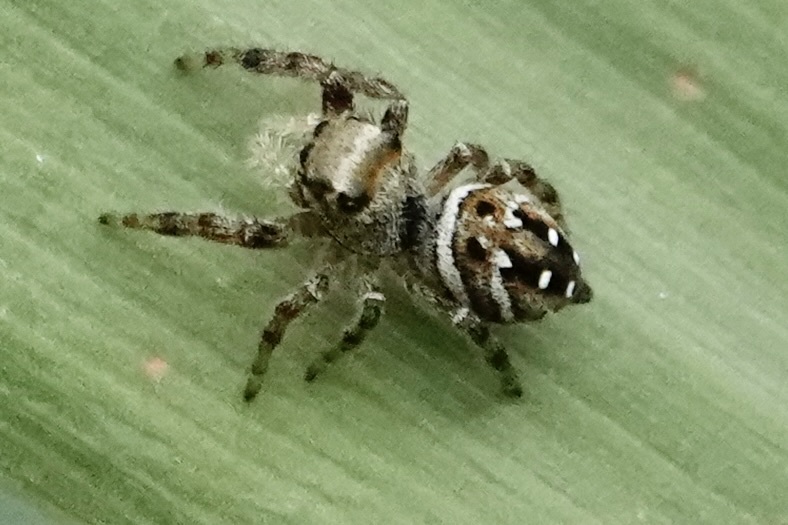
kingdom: Animalia
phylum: Arthropoda
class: Arachnida
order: Araneae
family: Salticidae
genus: Phidippus
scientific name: Phidippus clarus
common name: Brilliant jumping spider
